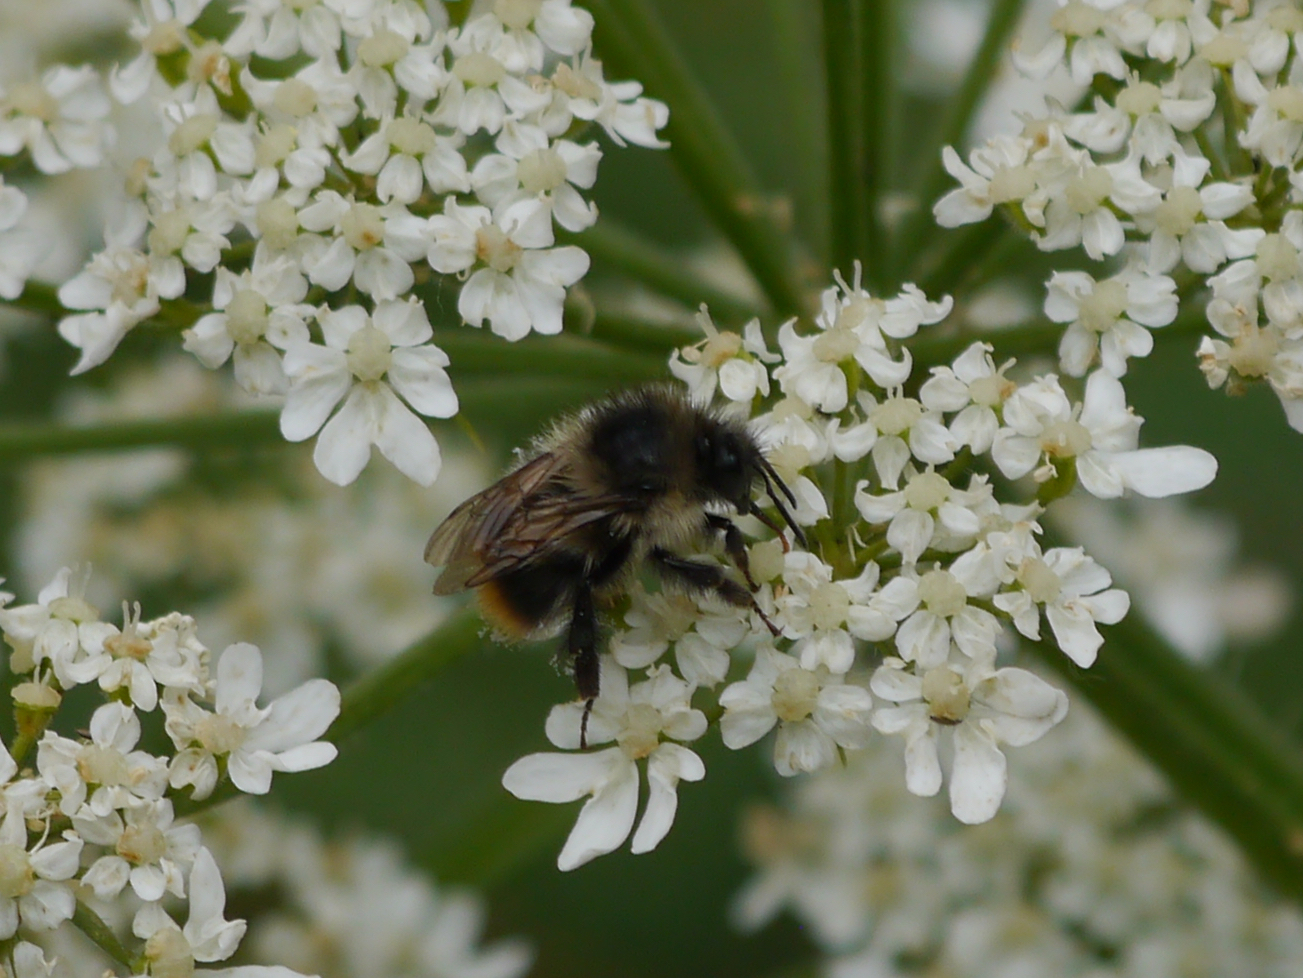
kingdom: Animalia
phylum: Arthropoda
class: Insecta
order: Hymenoptera
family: Apidae
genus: Bombus
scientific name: Bombus mixtus
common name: Fuzzy-horned bumble bee
